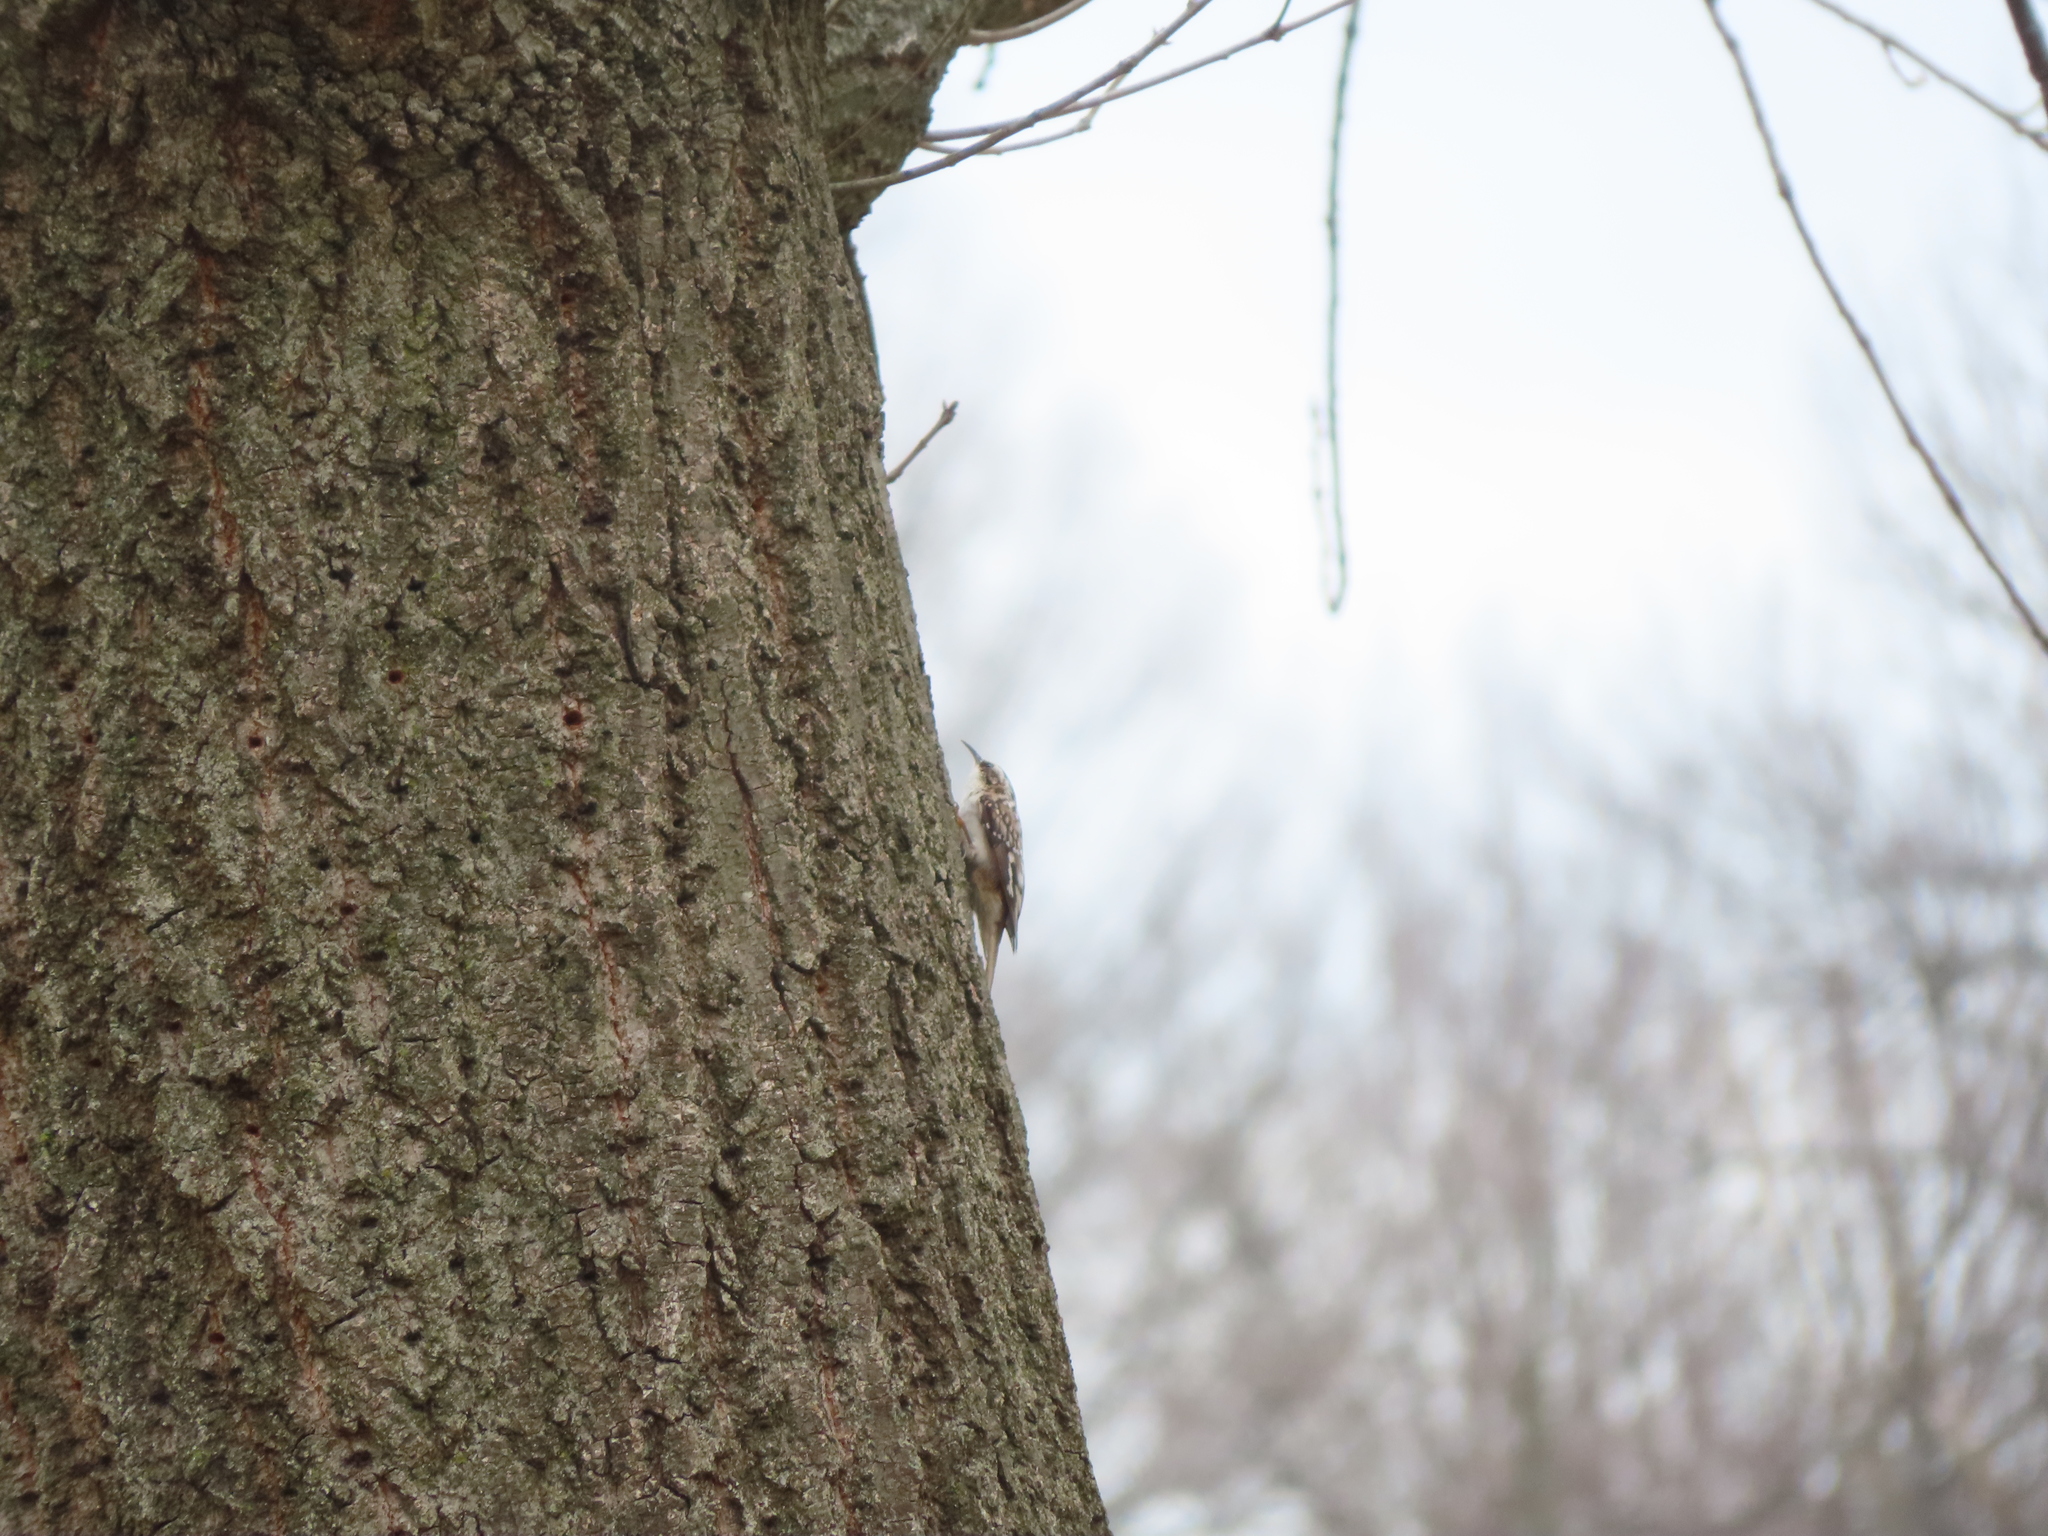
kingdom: Animalia
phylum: Chordata
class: Aves
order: Passeriformes
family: Certhiidae
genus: Certhia
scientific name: Certhia americana
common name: Brown creeper
